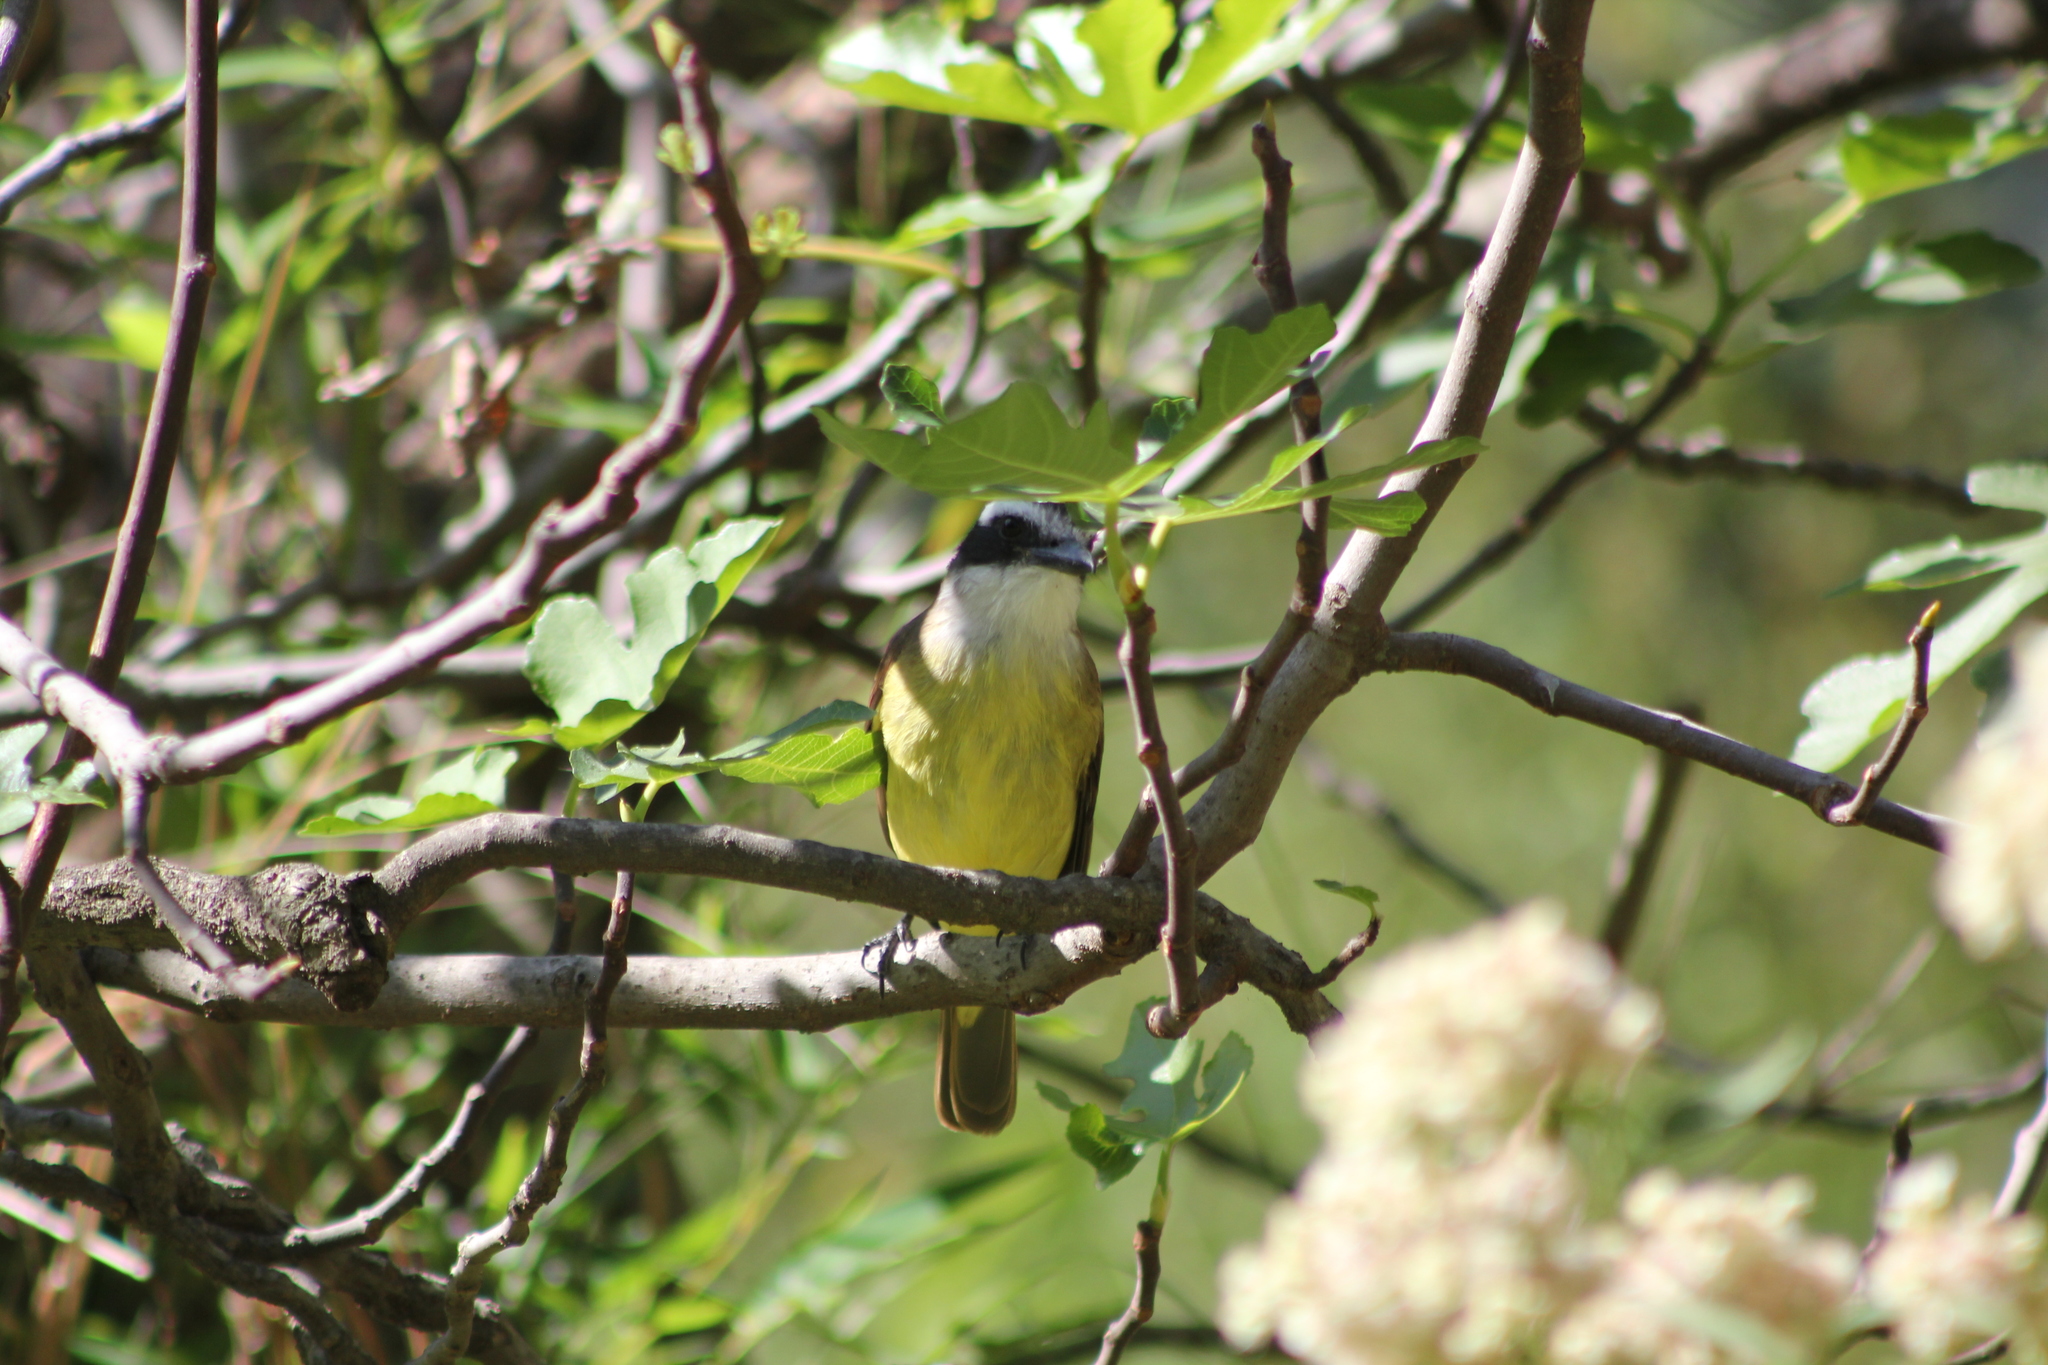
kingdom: Animalia
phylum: Chordata
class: Aves
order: Passeriformes
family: Tyrannidae
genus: Pitangus
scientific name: Pitangus sulphuratus
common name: Great kiskadee
